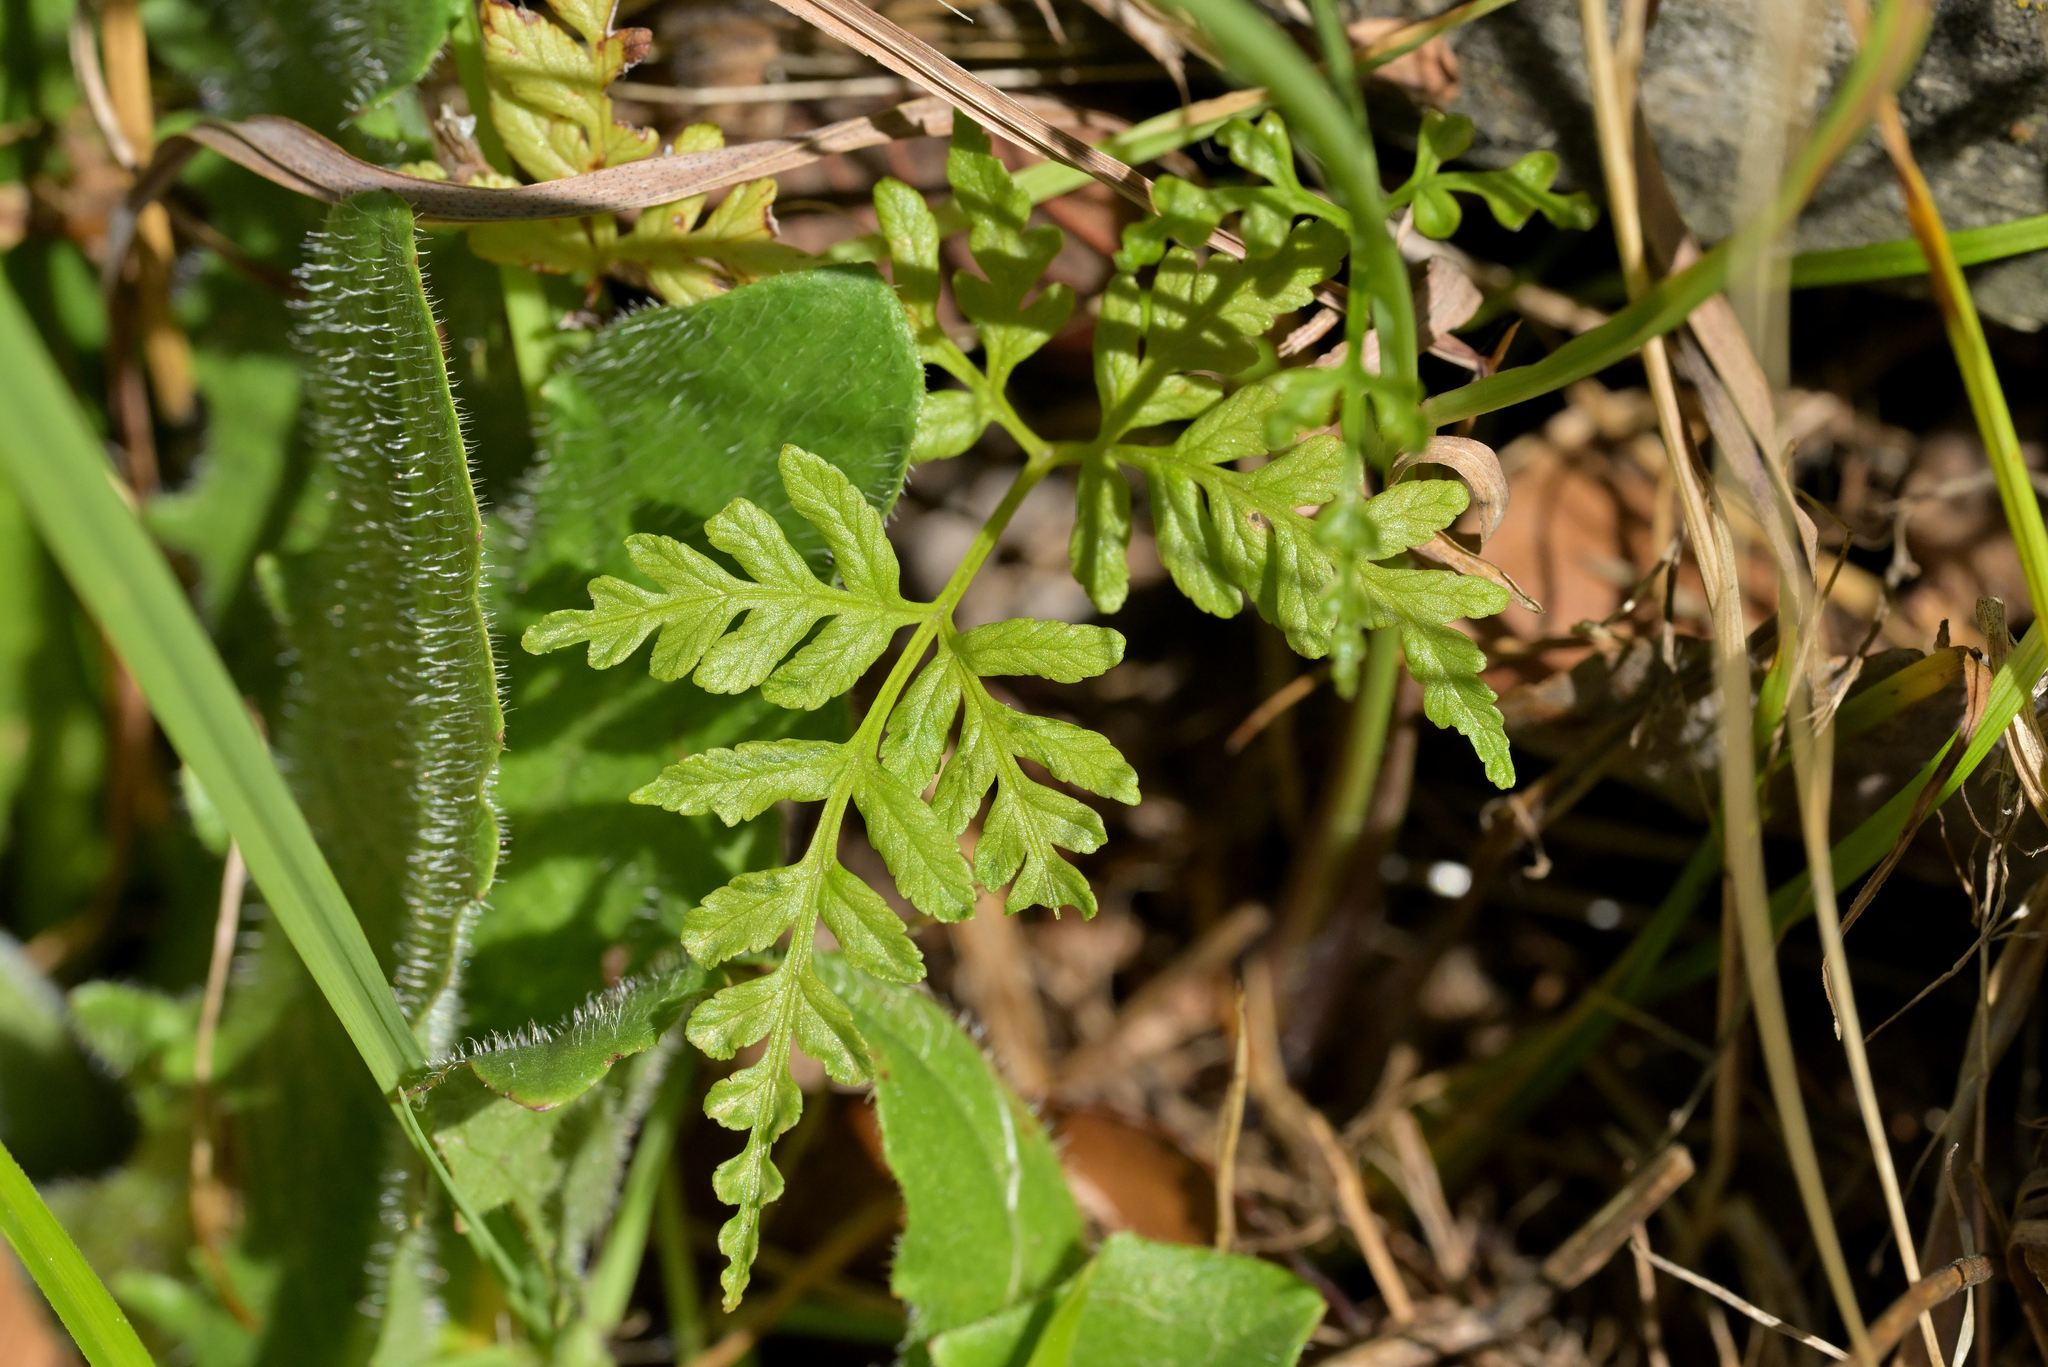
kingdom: Plantae
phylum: Tracheophyta
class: Polypodiopsida
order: Polypodiales
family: Pteridaceae
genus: Pteris
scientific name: Pteris tremula
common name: Australian brake
